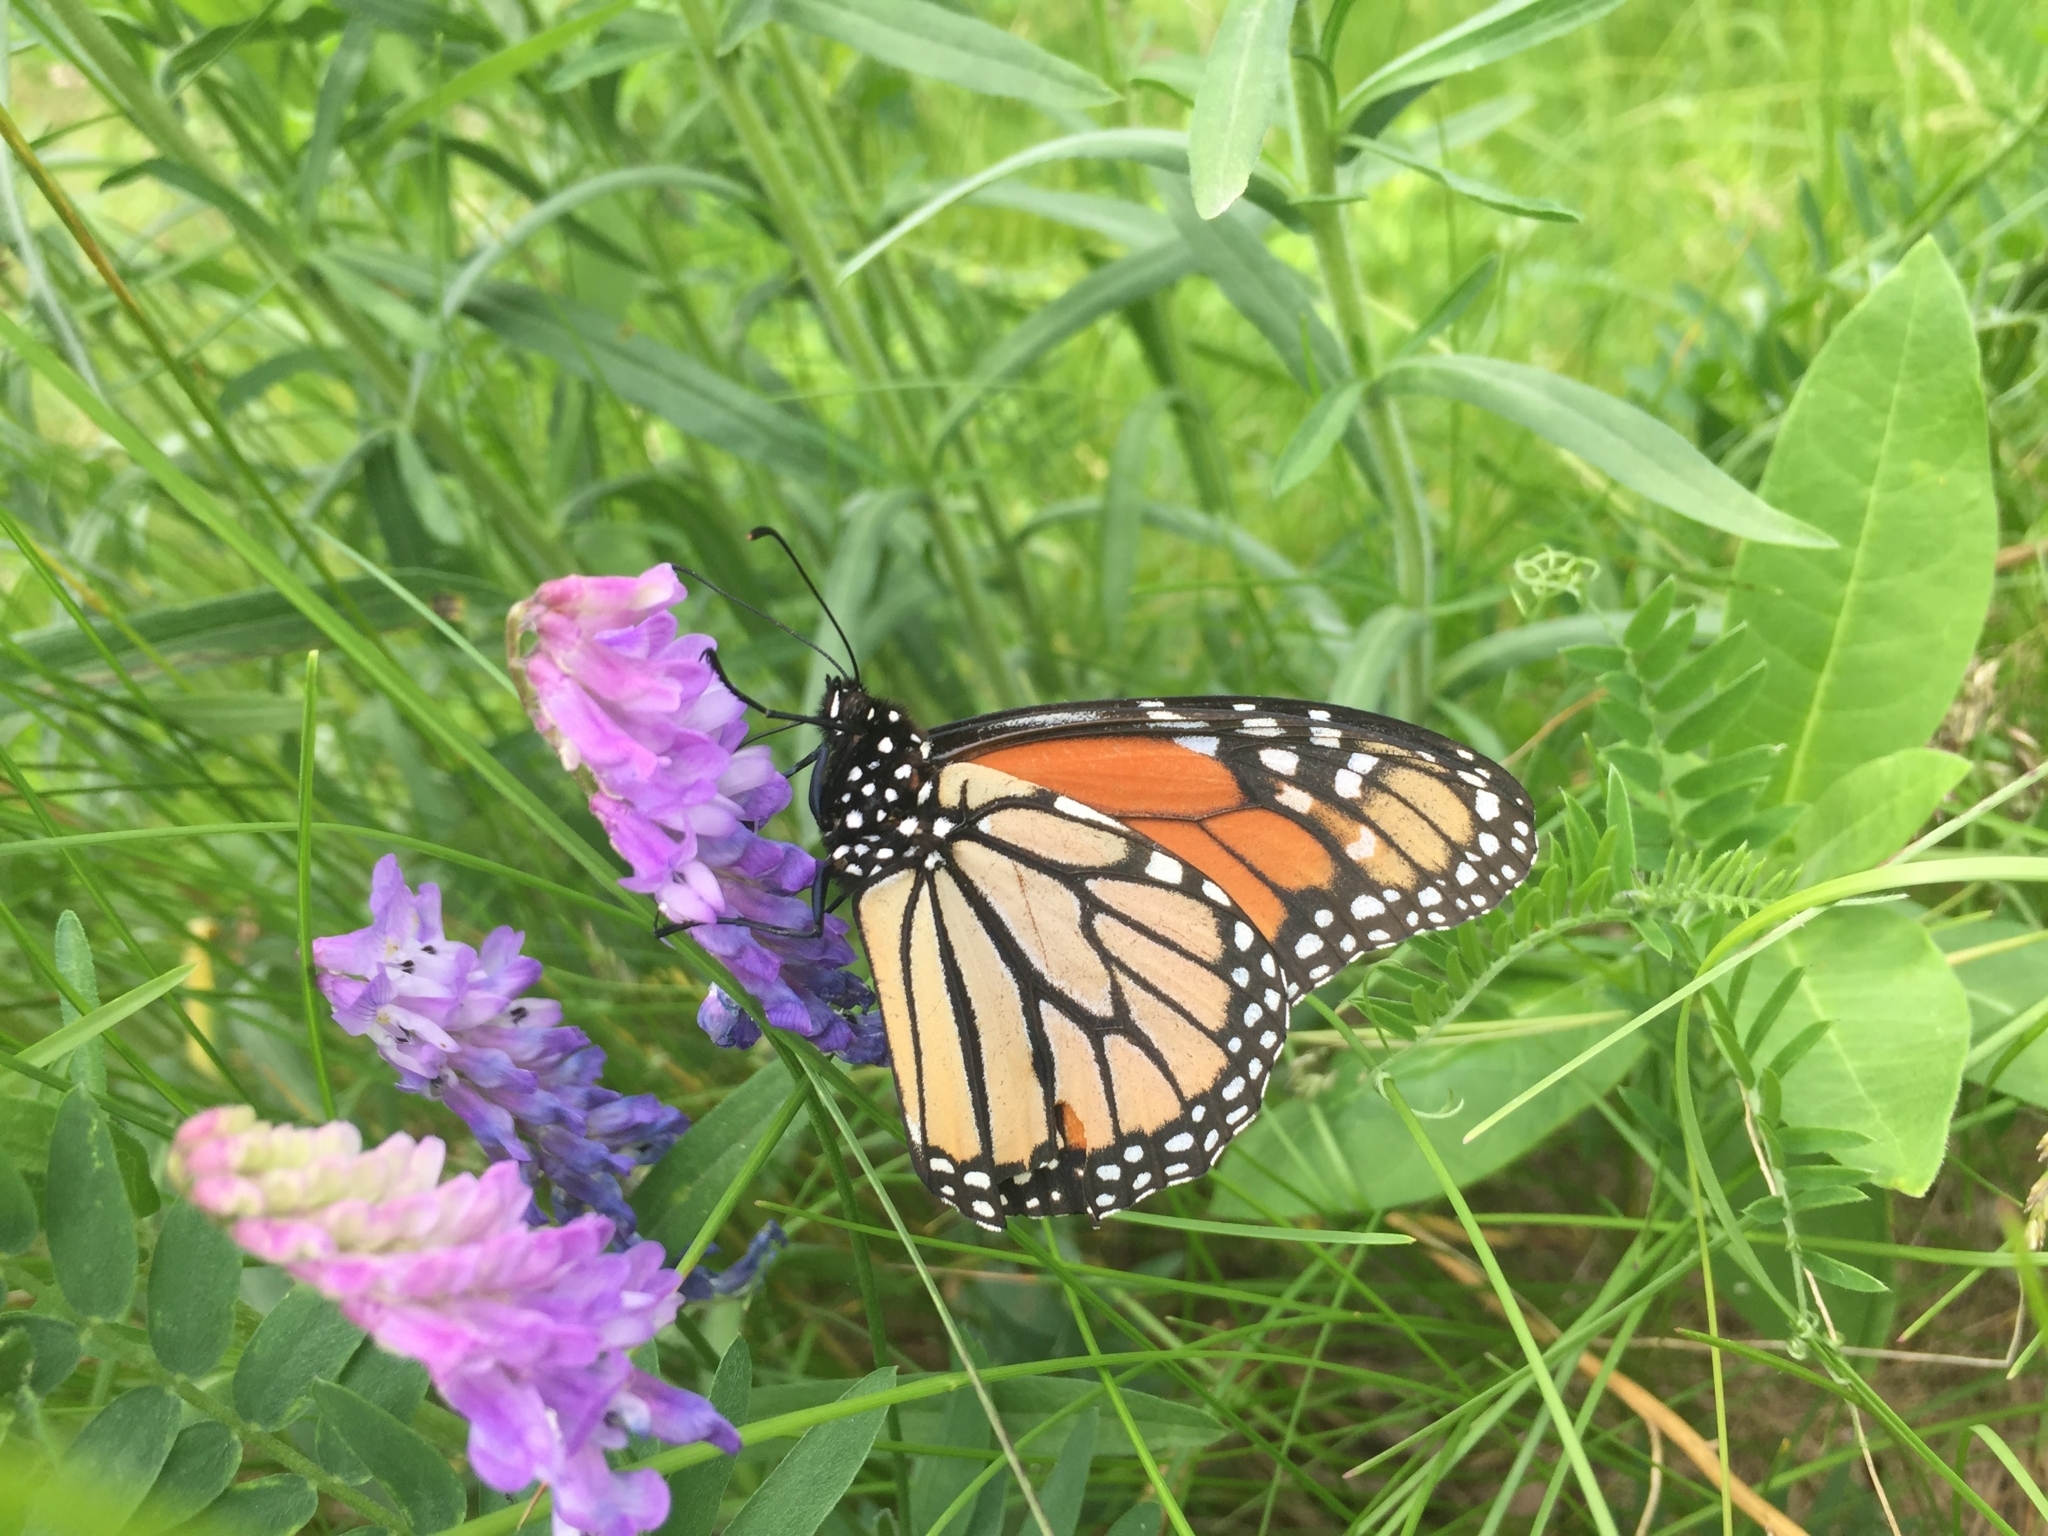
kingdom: Animalia
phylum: Arthropoda
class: Insecta
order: Lepidoptera
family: Nymphalidae
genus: Danaus
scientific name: Danaus plexippus
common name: Monarch
